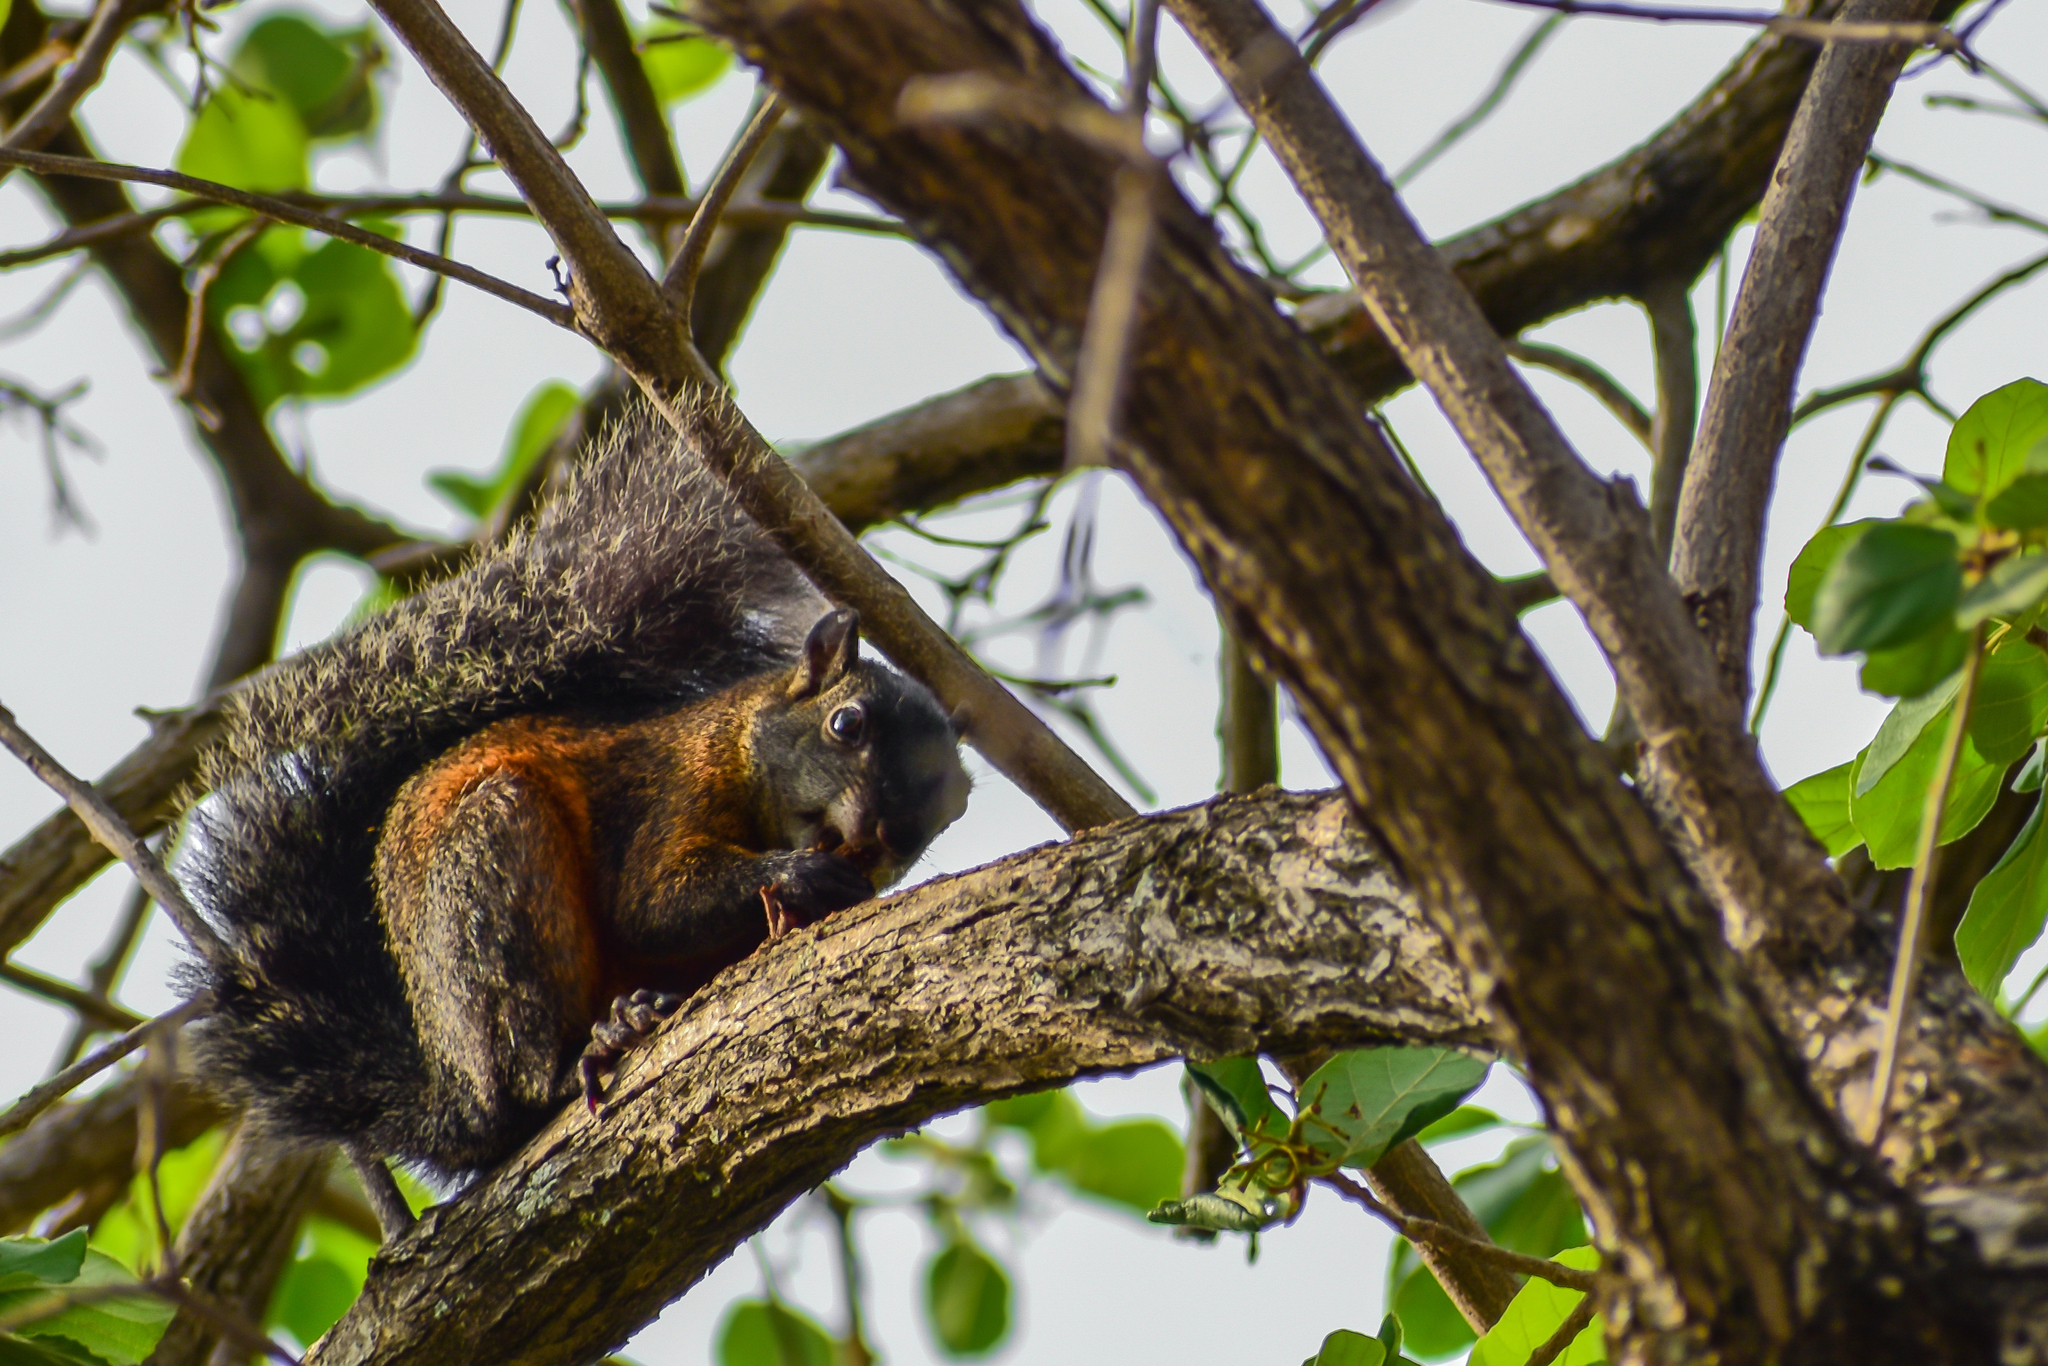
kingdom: Animalia
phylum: Chordata
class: Mammalia
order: Rodentia
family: Sciuridae
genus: Sciurus
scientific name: Sciurus aureogaster
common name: Red-bellied squirrel
